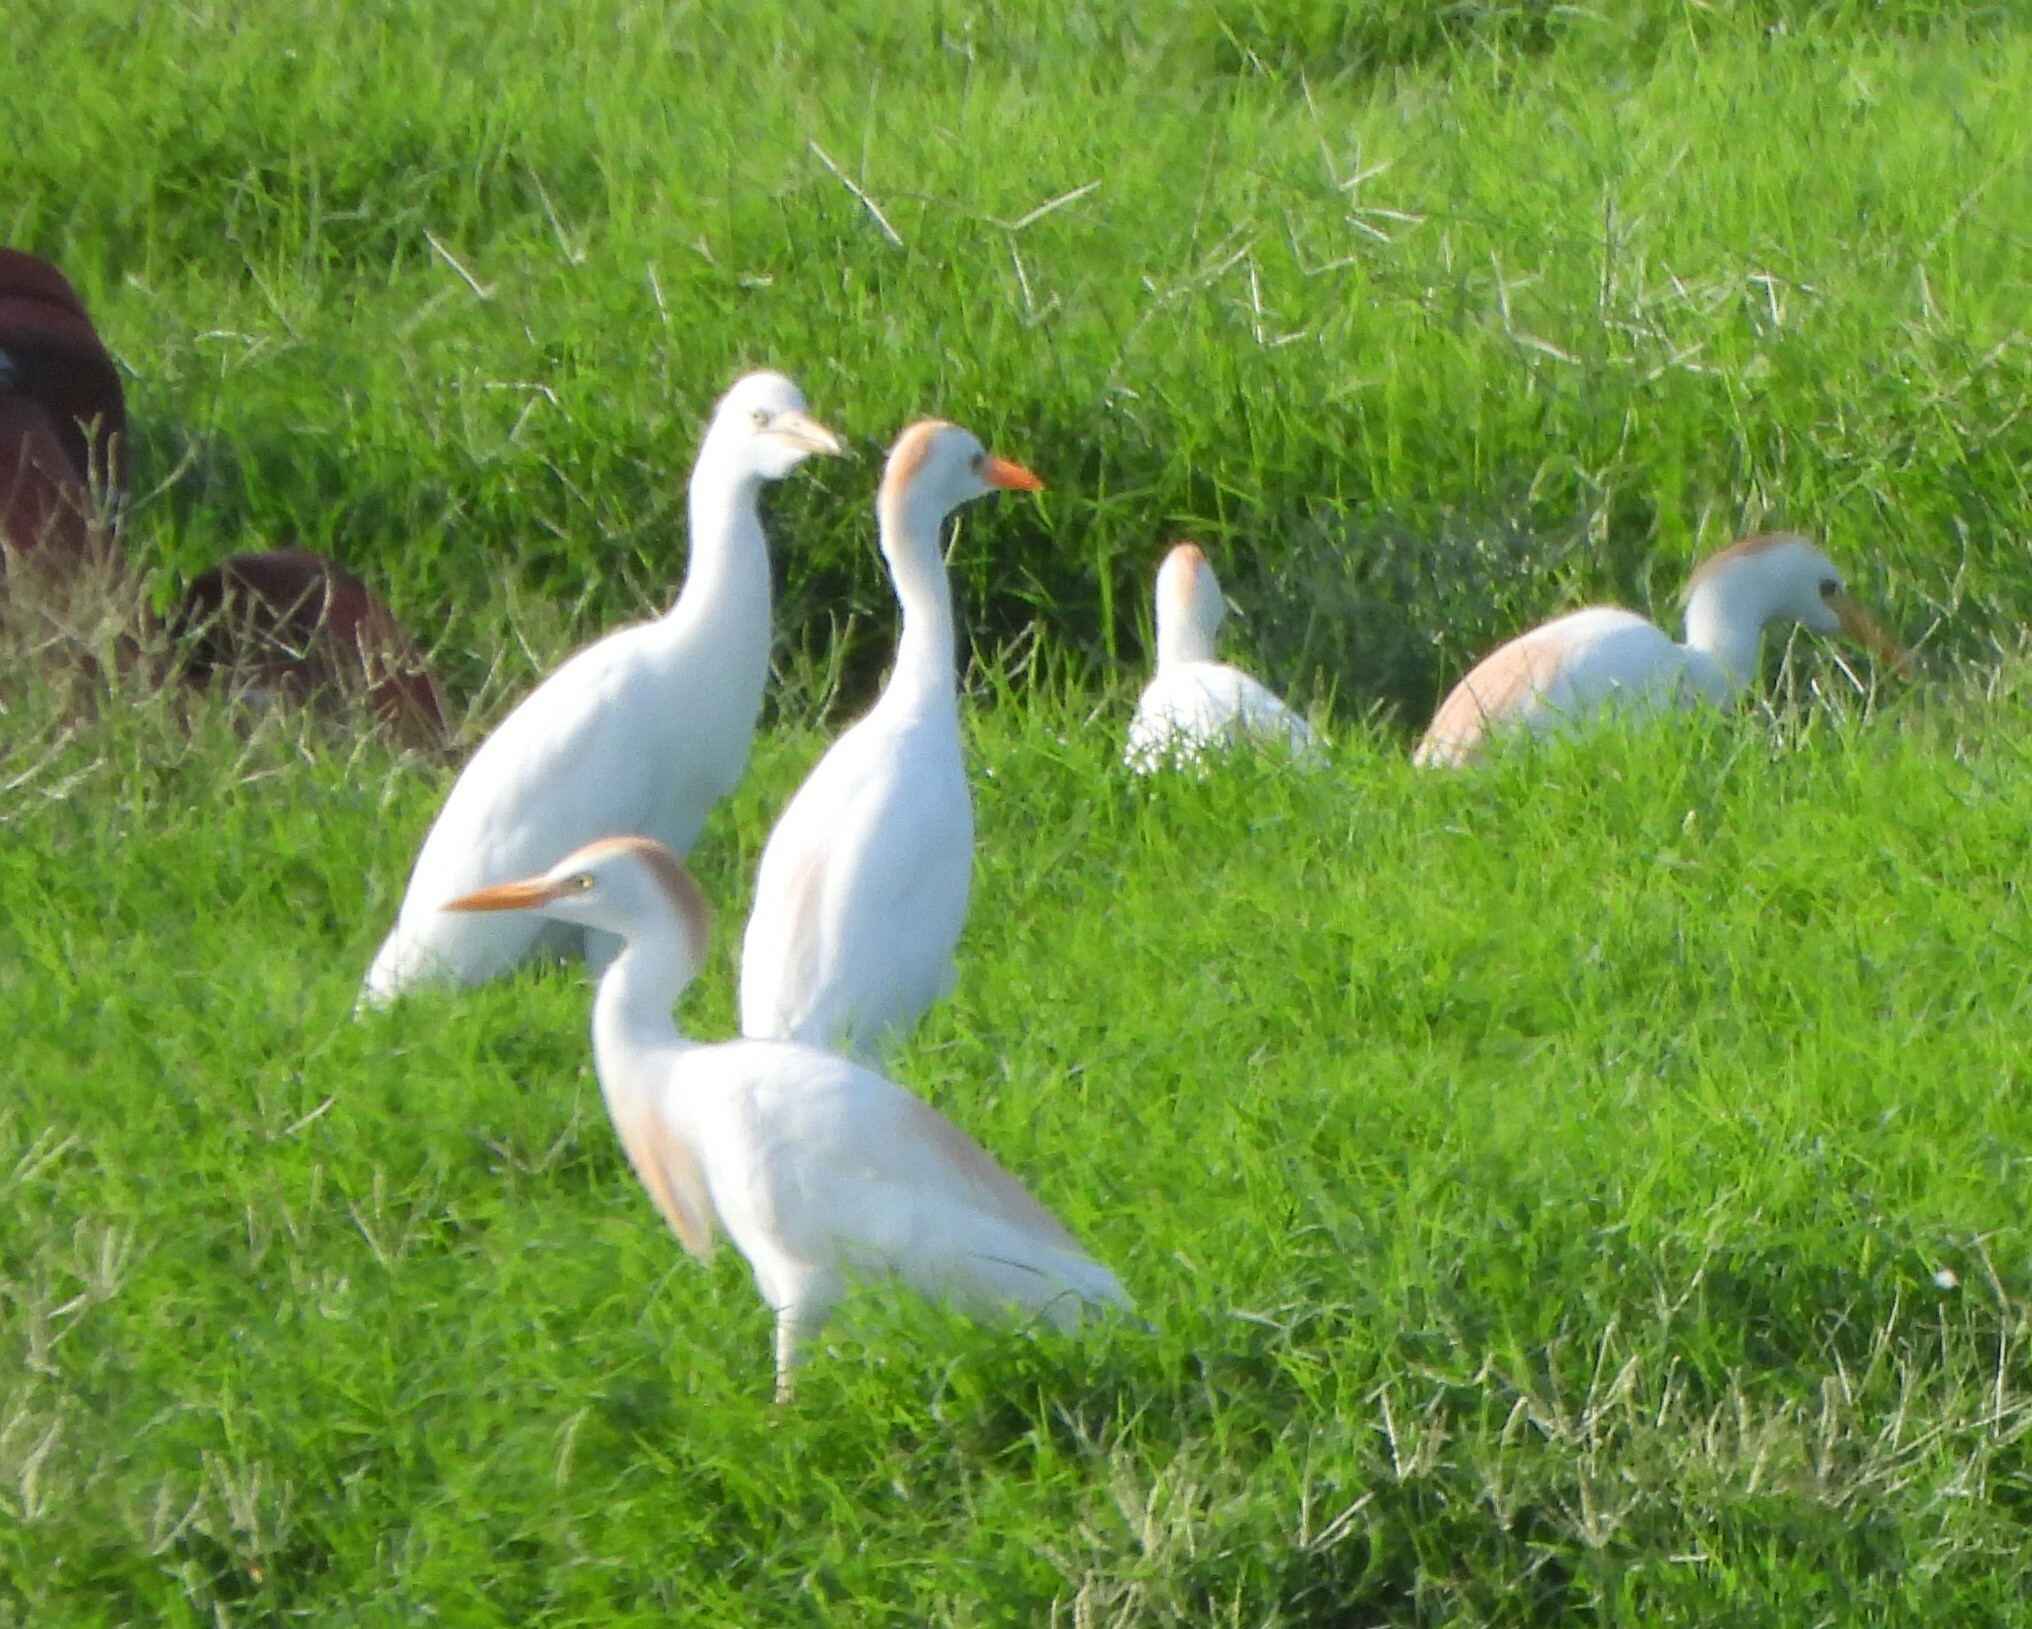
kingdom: Animalia
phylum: Chordata
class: Aves
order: Pelecaniformes
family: Ardeidae
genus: Bubulcus
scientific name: Bubulcus ibis
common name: Cattle egret
